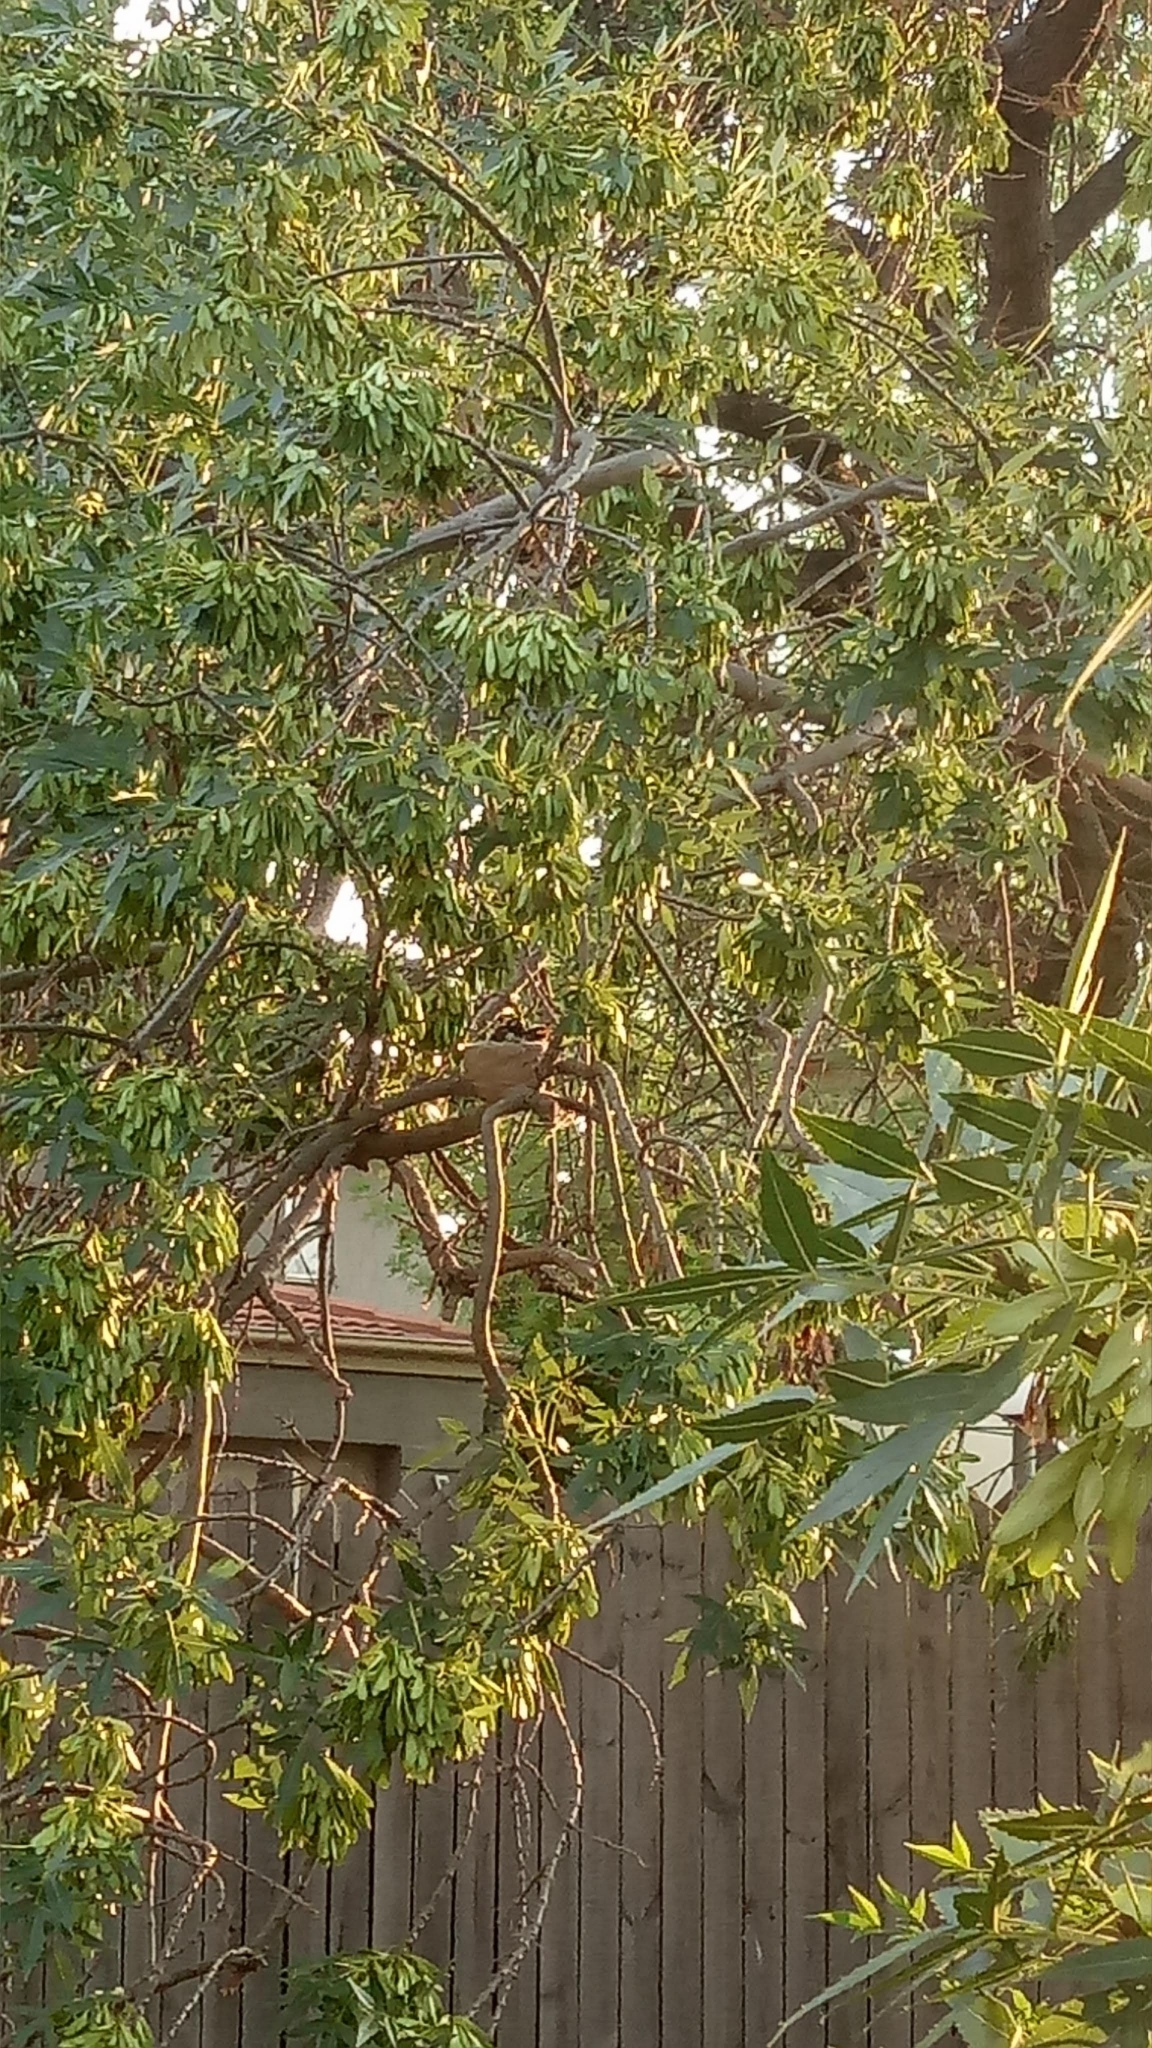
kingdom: Animalia
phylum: Chordata
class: Aves
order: Passeriformes
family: Rhipiduridae
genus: Rhipidura
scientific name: Rhipidura leucophrys
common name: Willie wagtail
